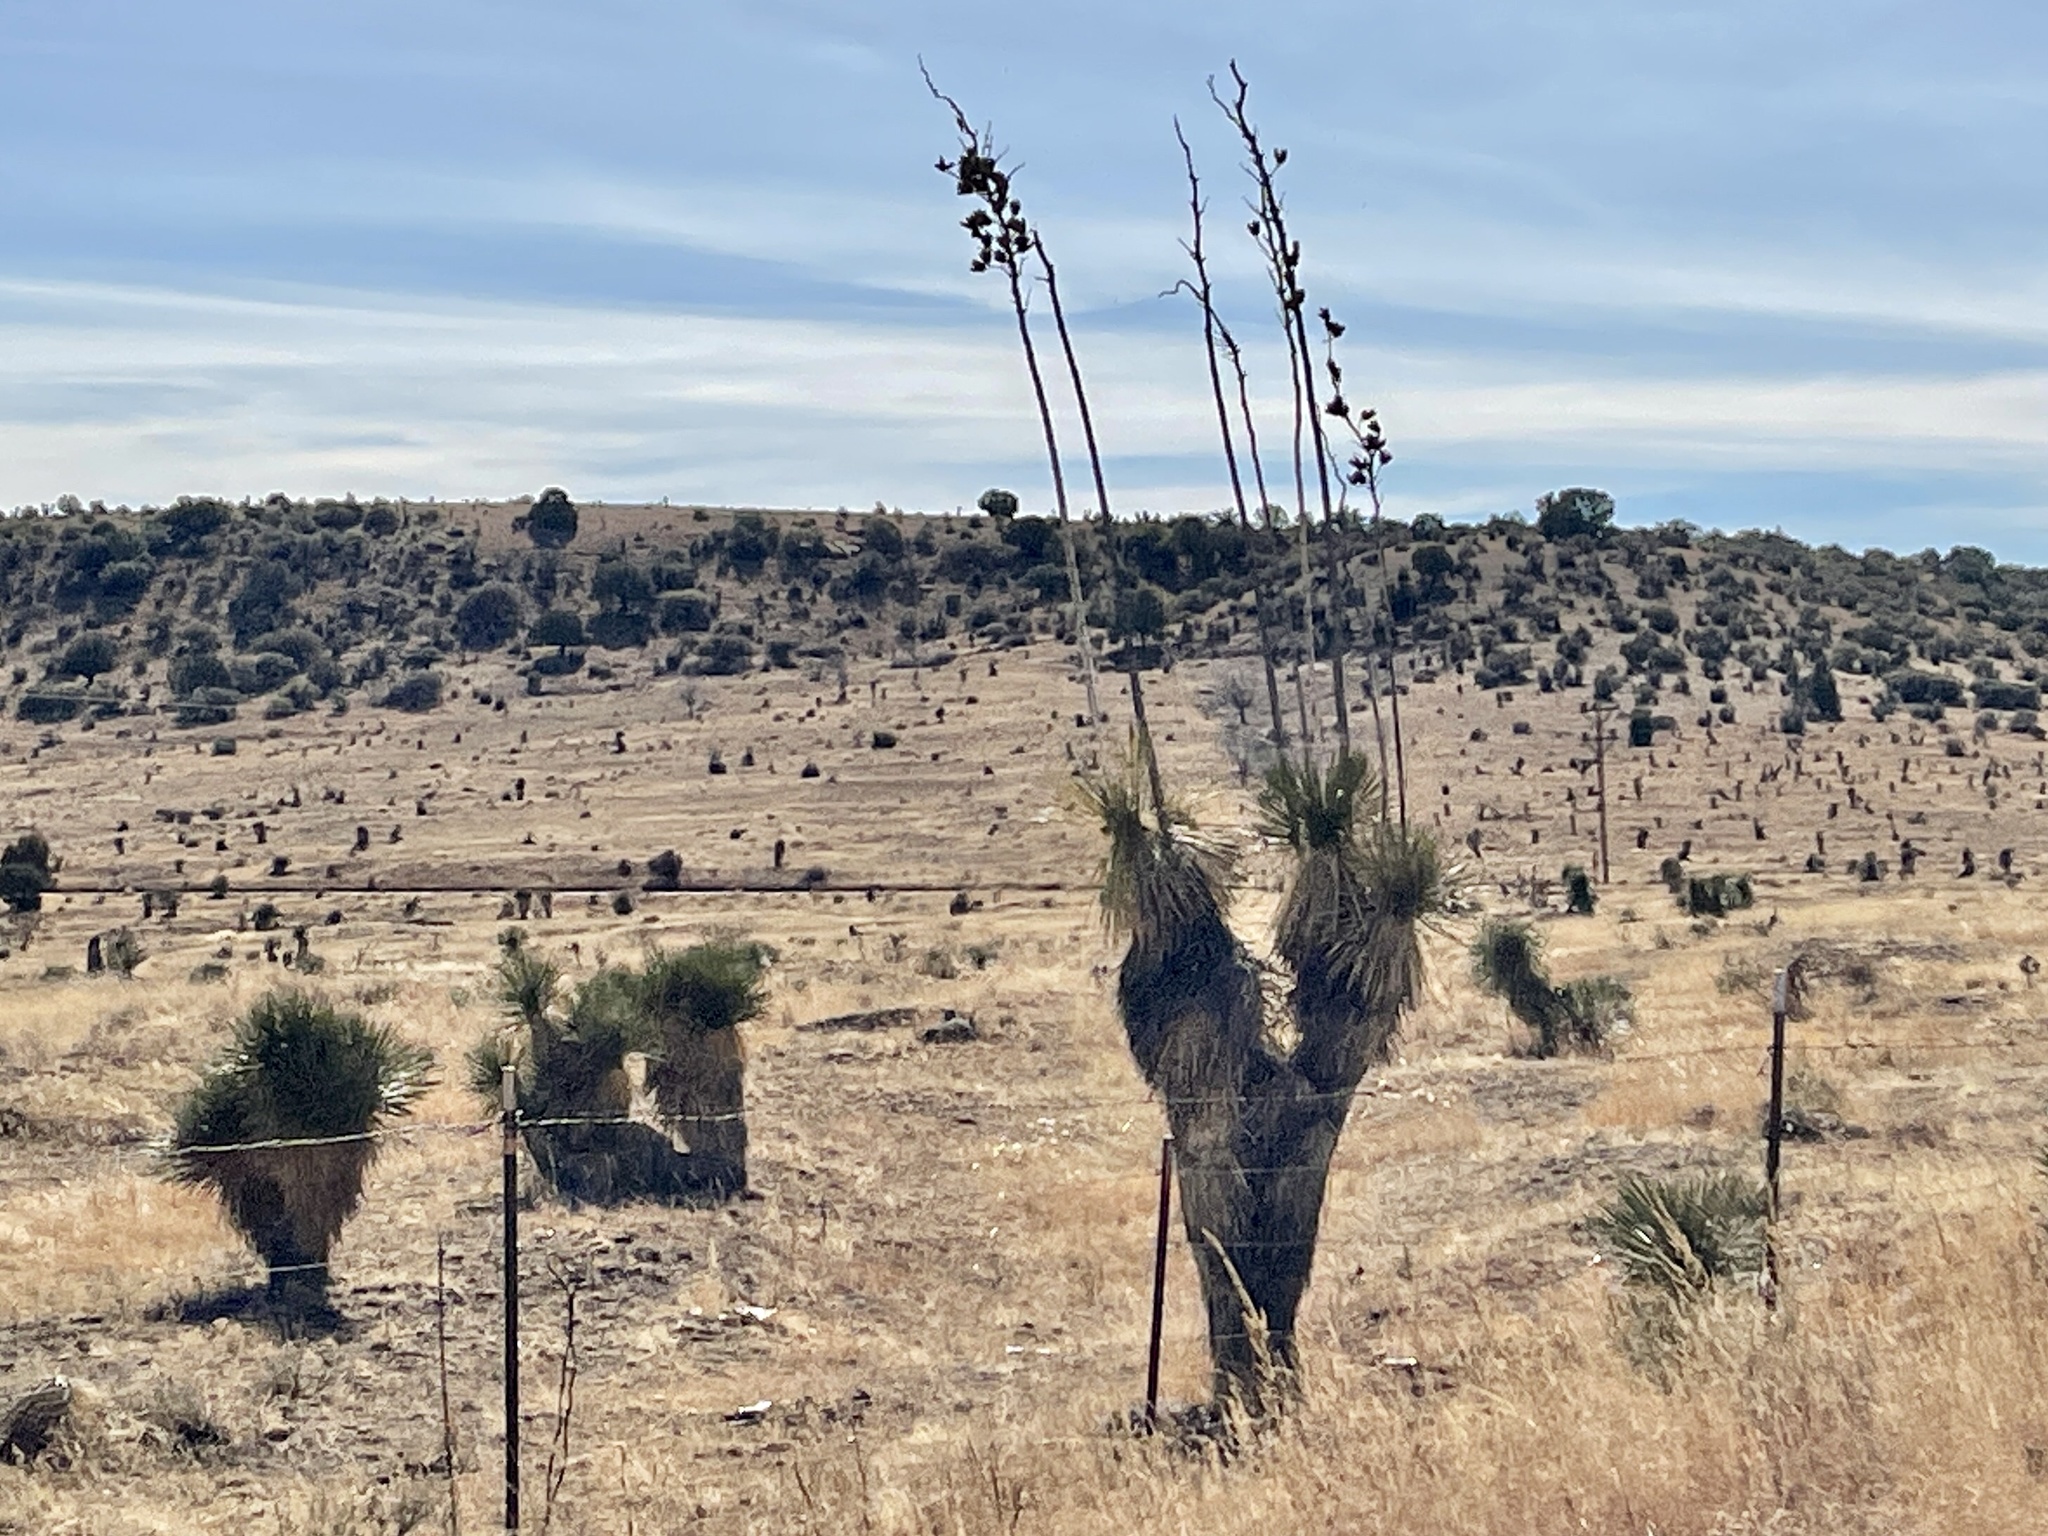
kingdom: Plantae
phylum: Tracheophyta
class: Liliopsida
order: Asparagales
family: Asparagaceae
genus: Yucca
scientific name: Yucca elata
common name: Palmella
